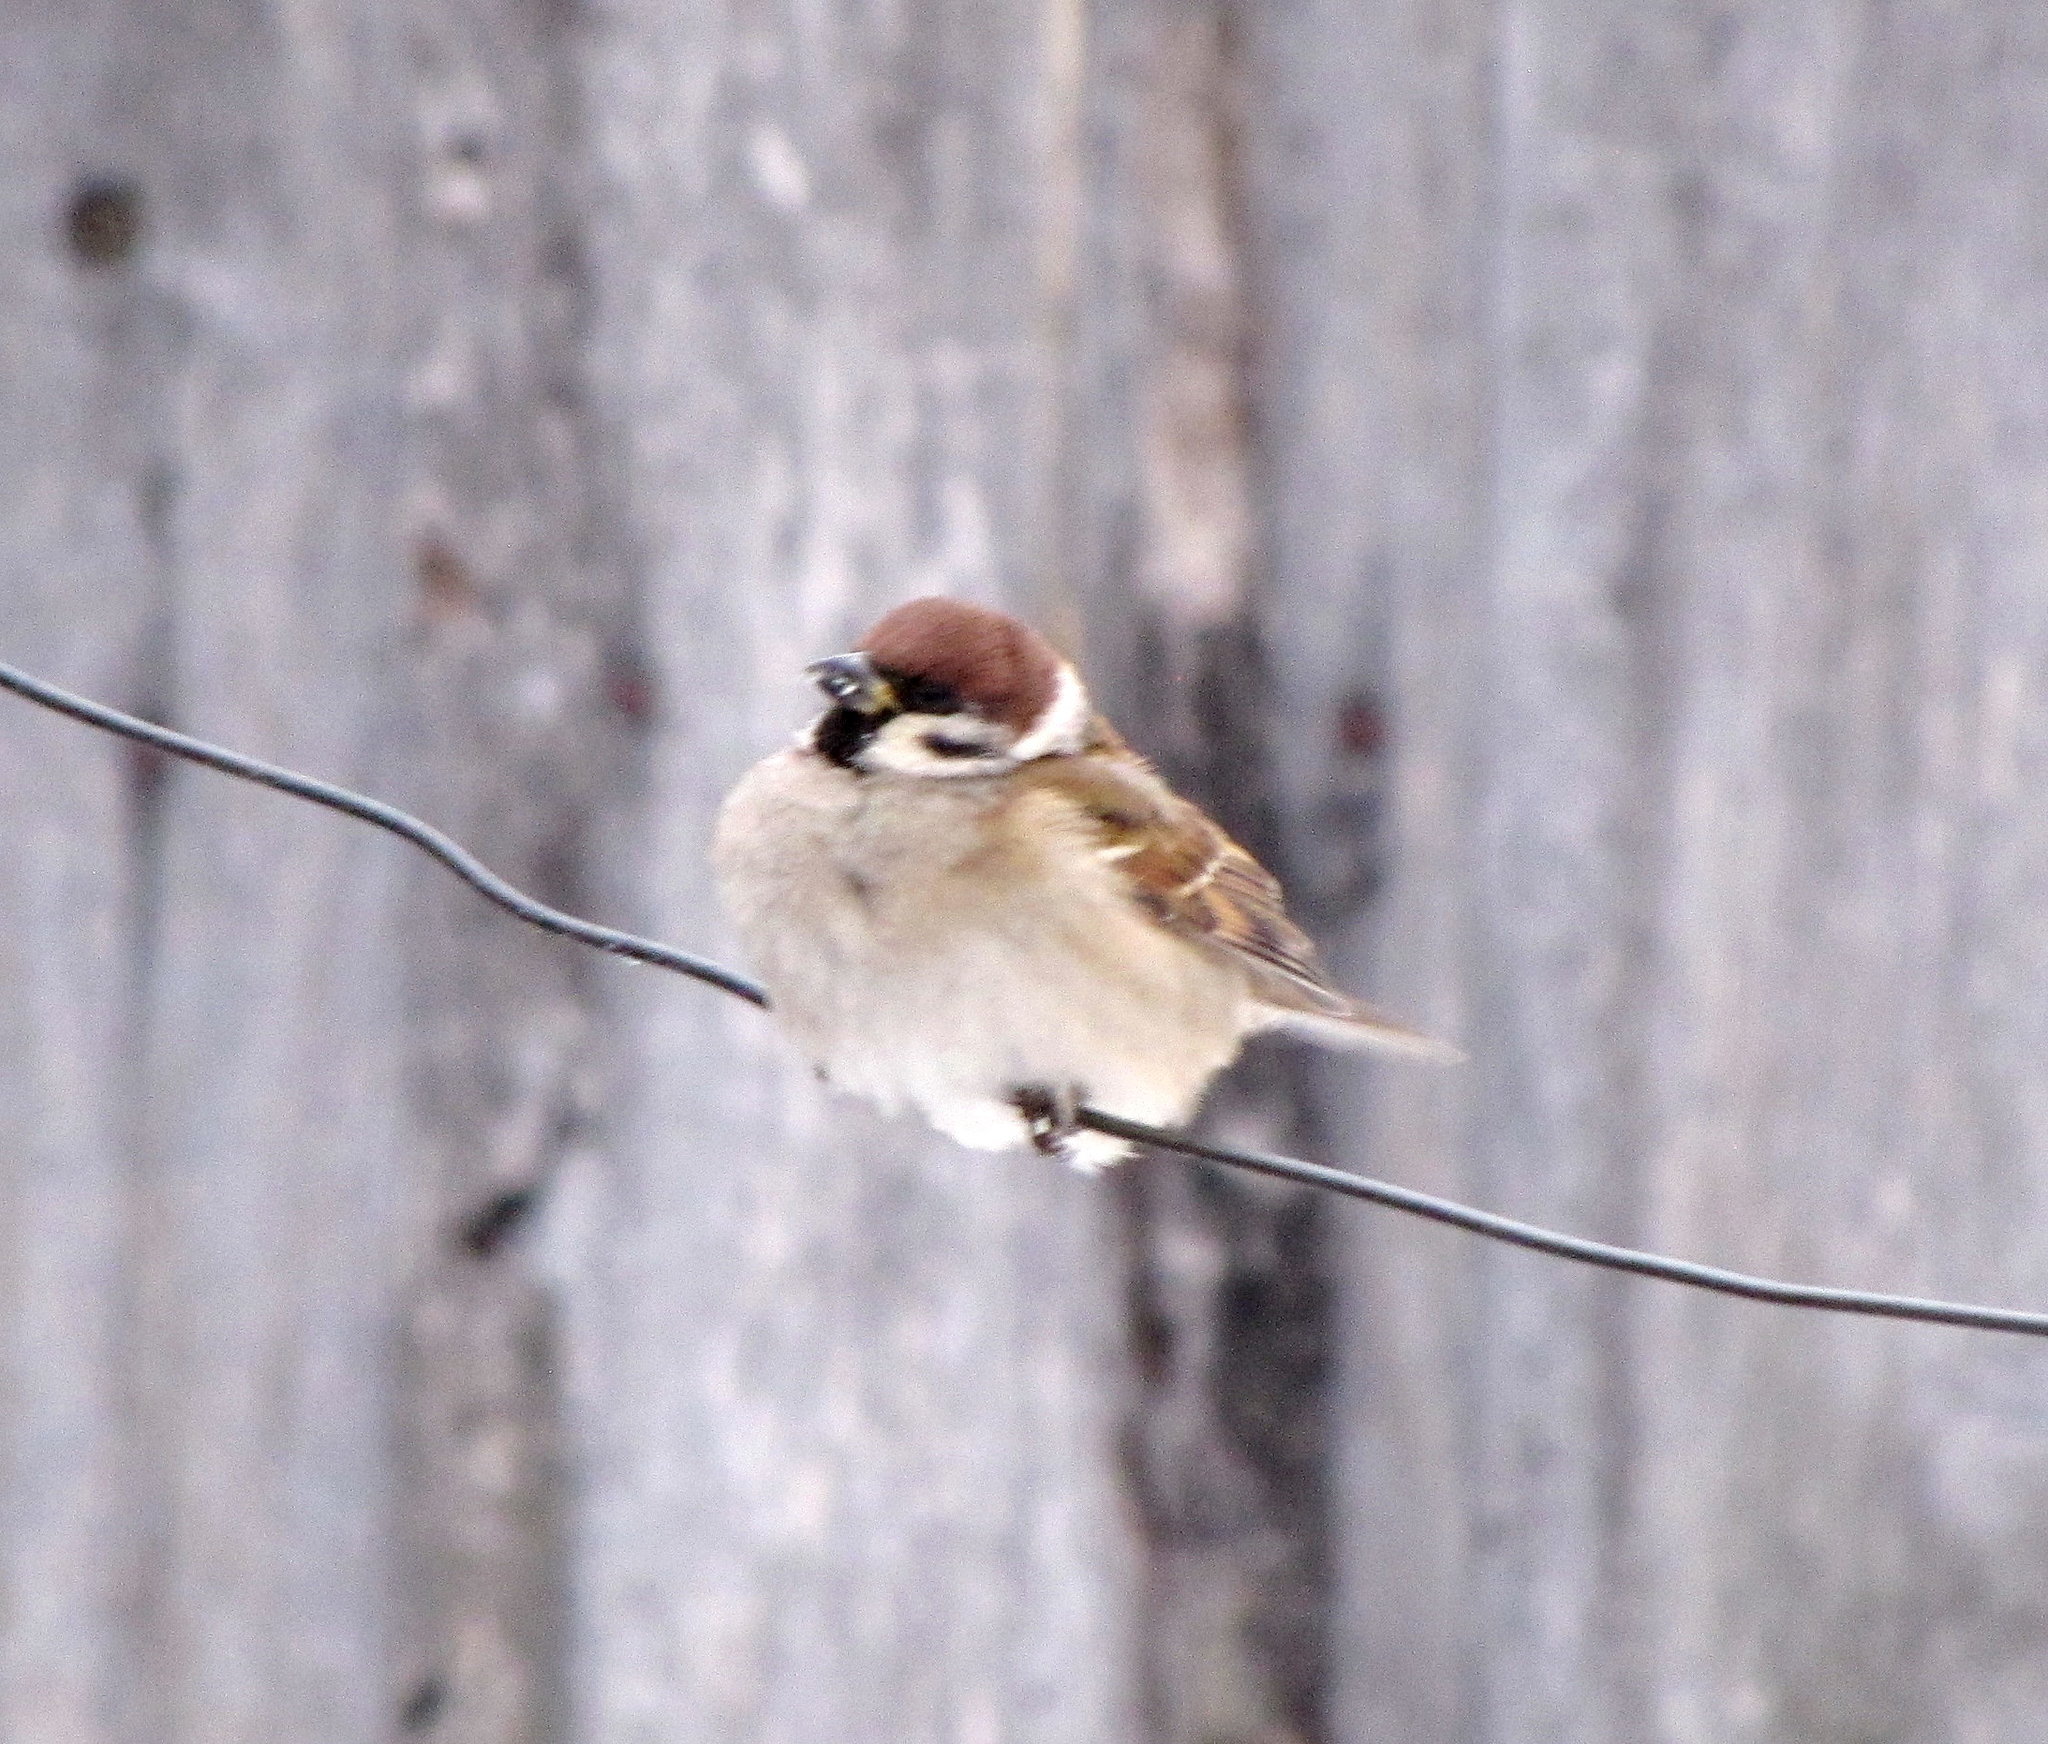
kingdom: Animalia
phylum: Chordata
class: Aves
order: Passeriformes
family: Passeridae
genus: Passer
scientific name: Passer montanus
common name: Eurasian tree sparrow
